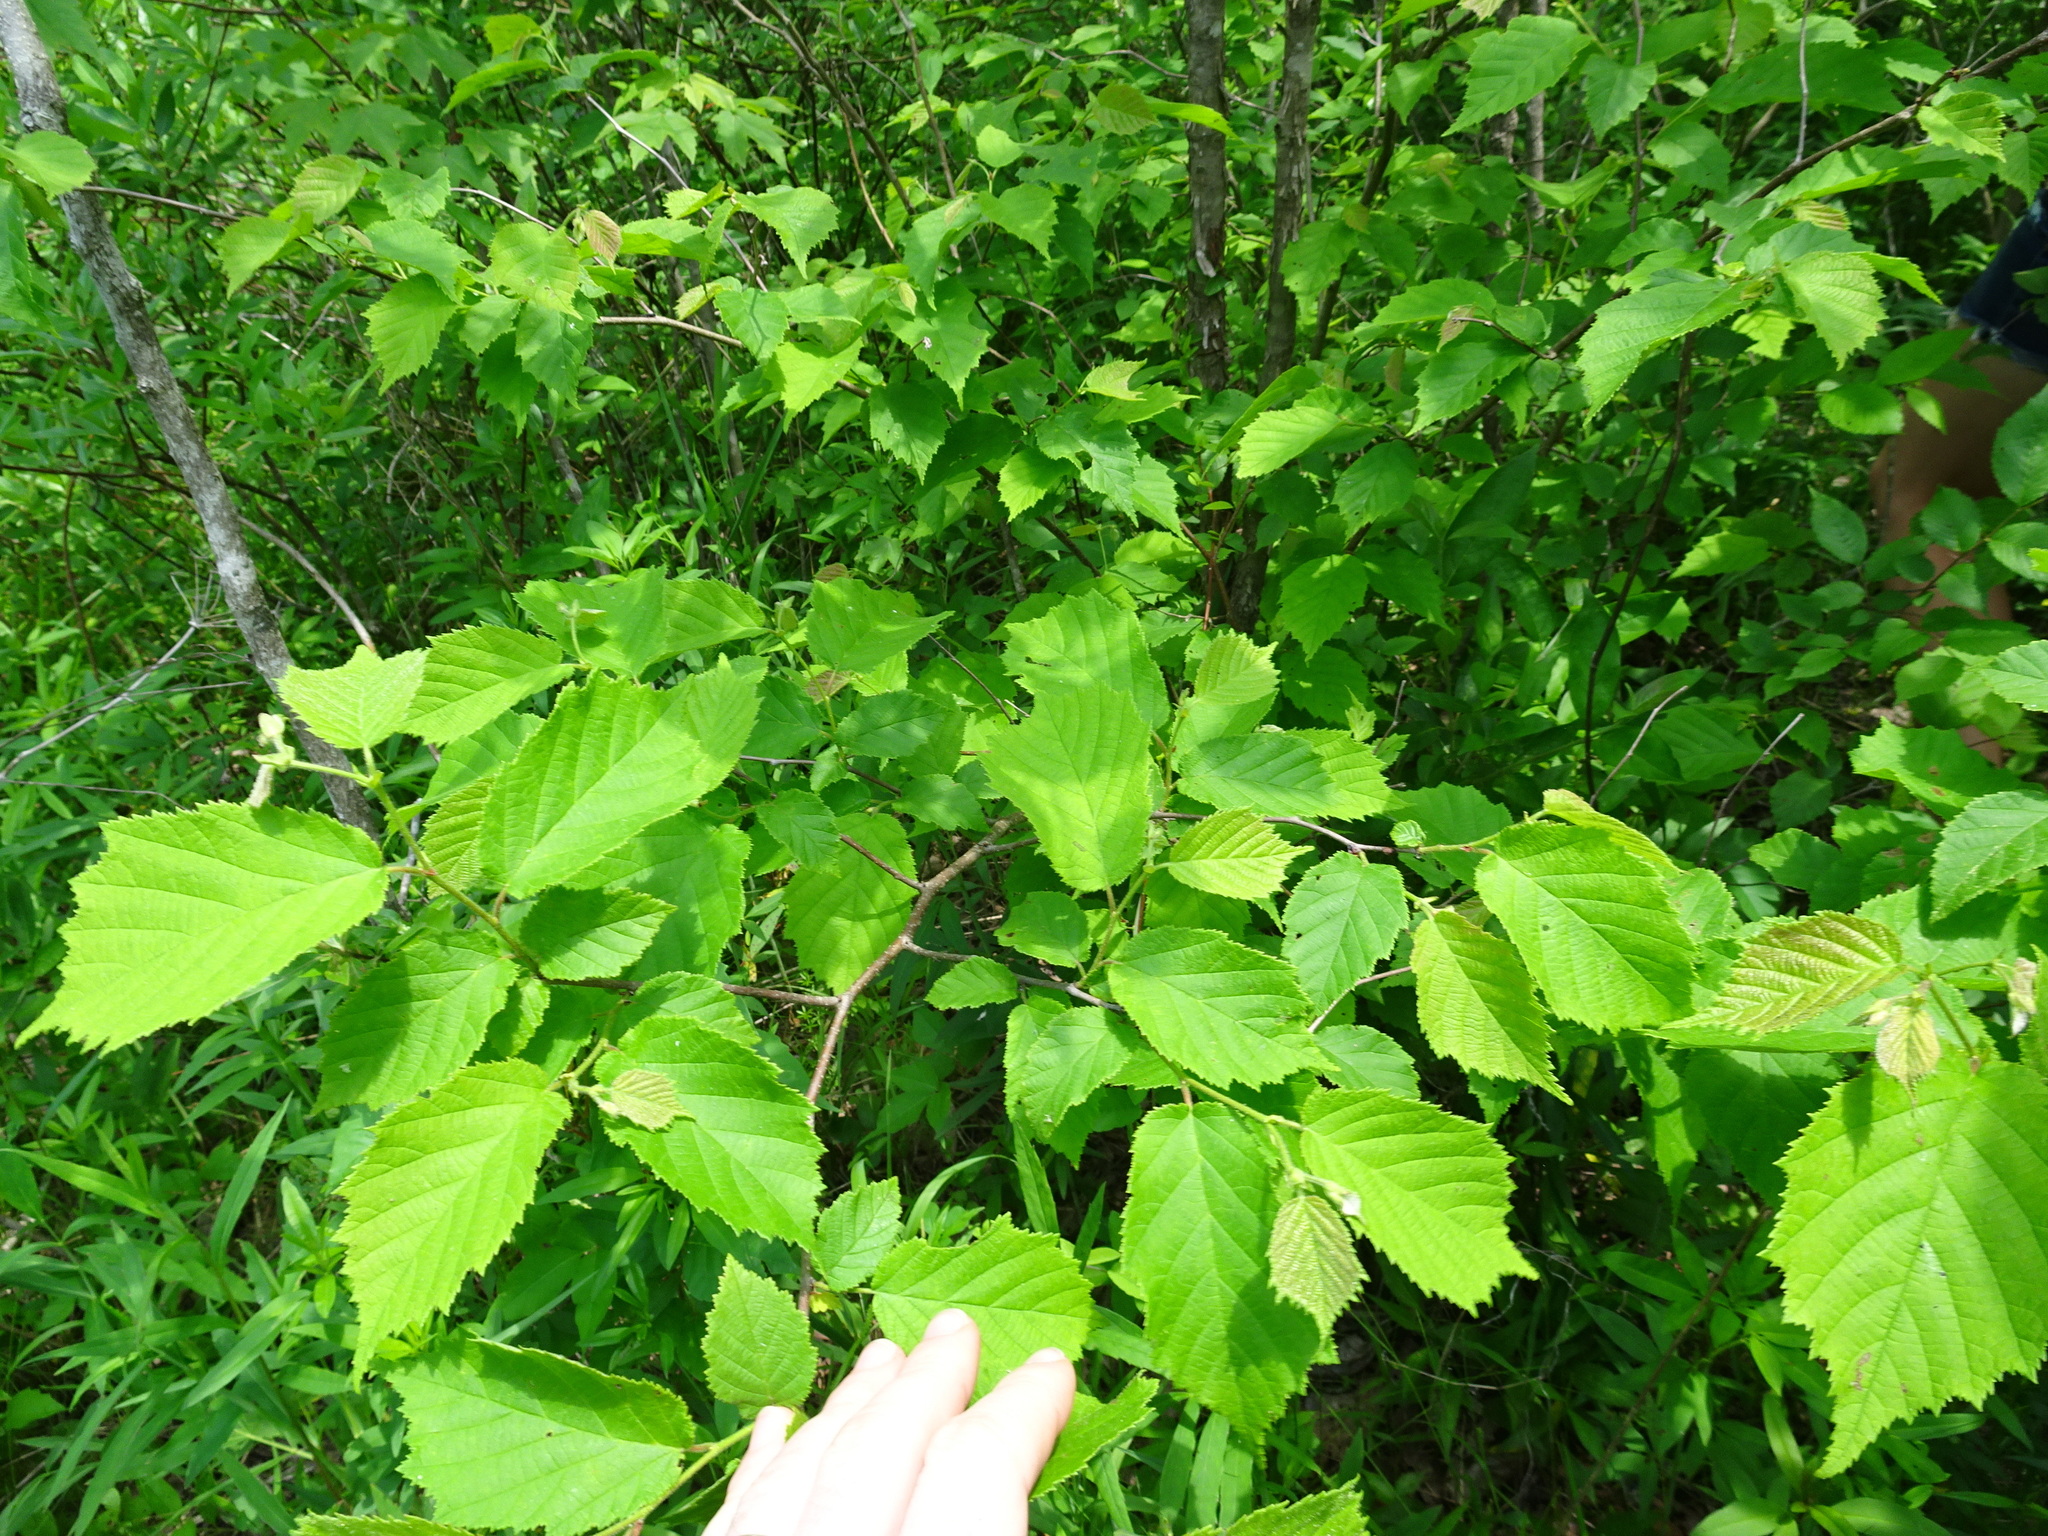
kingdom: Plantae
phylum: Tracheophyta
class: Magnoliopsida
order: Fagales
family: Betulaceae
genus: Corylus
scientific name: Corylus americana
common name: American hazel
